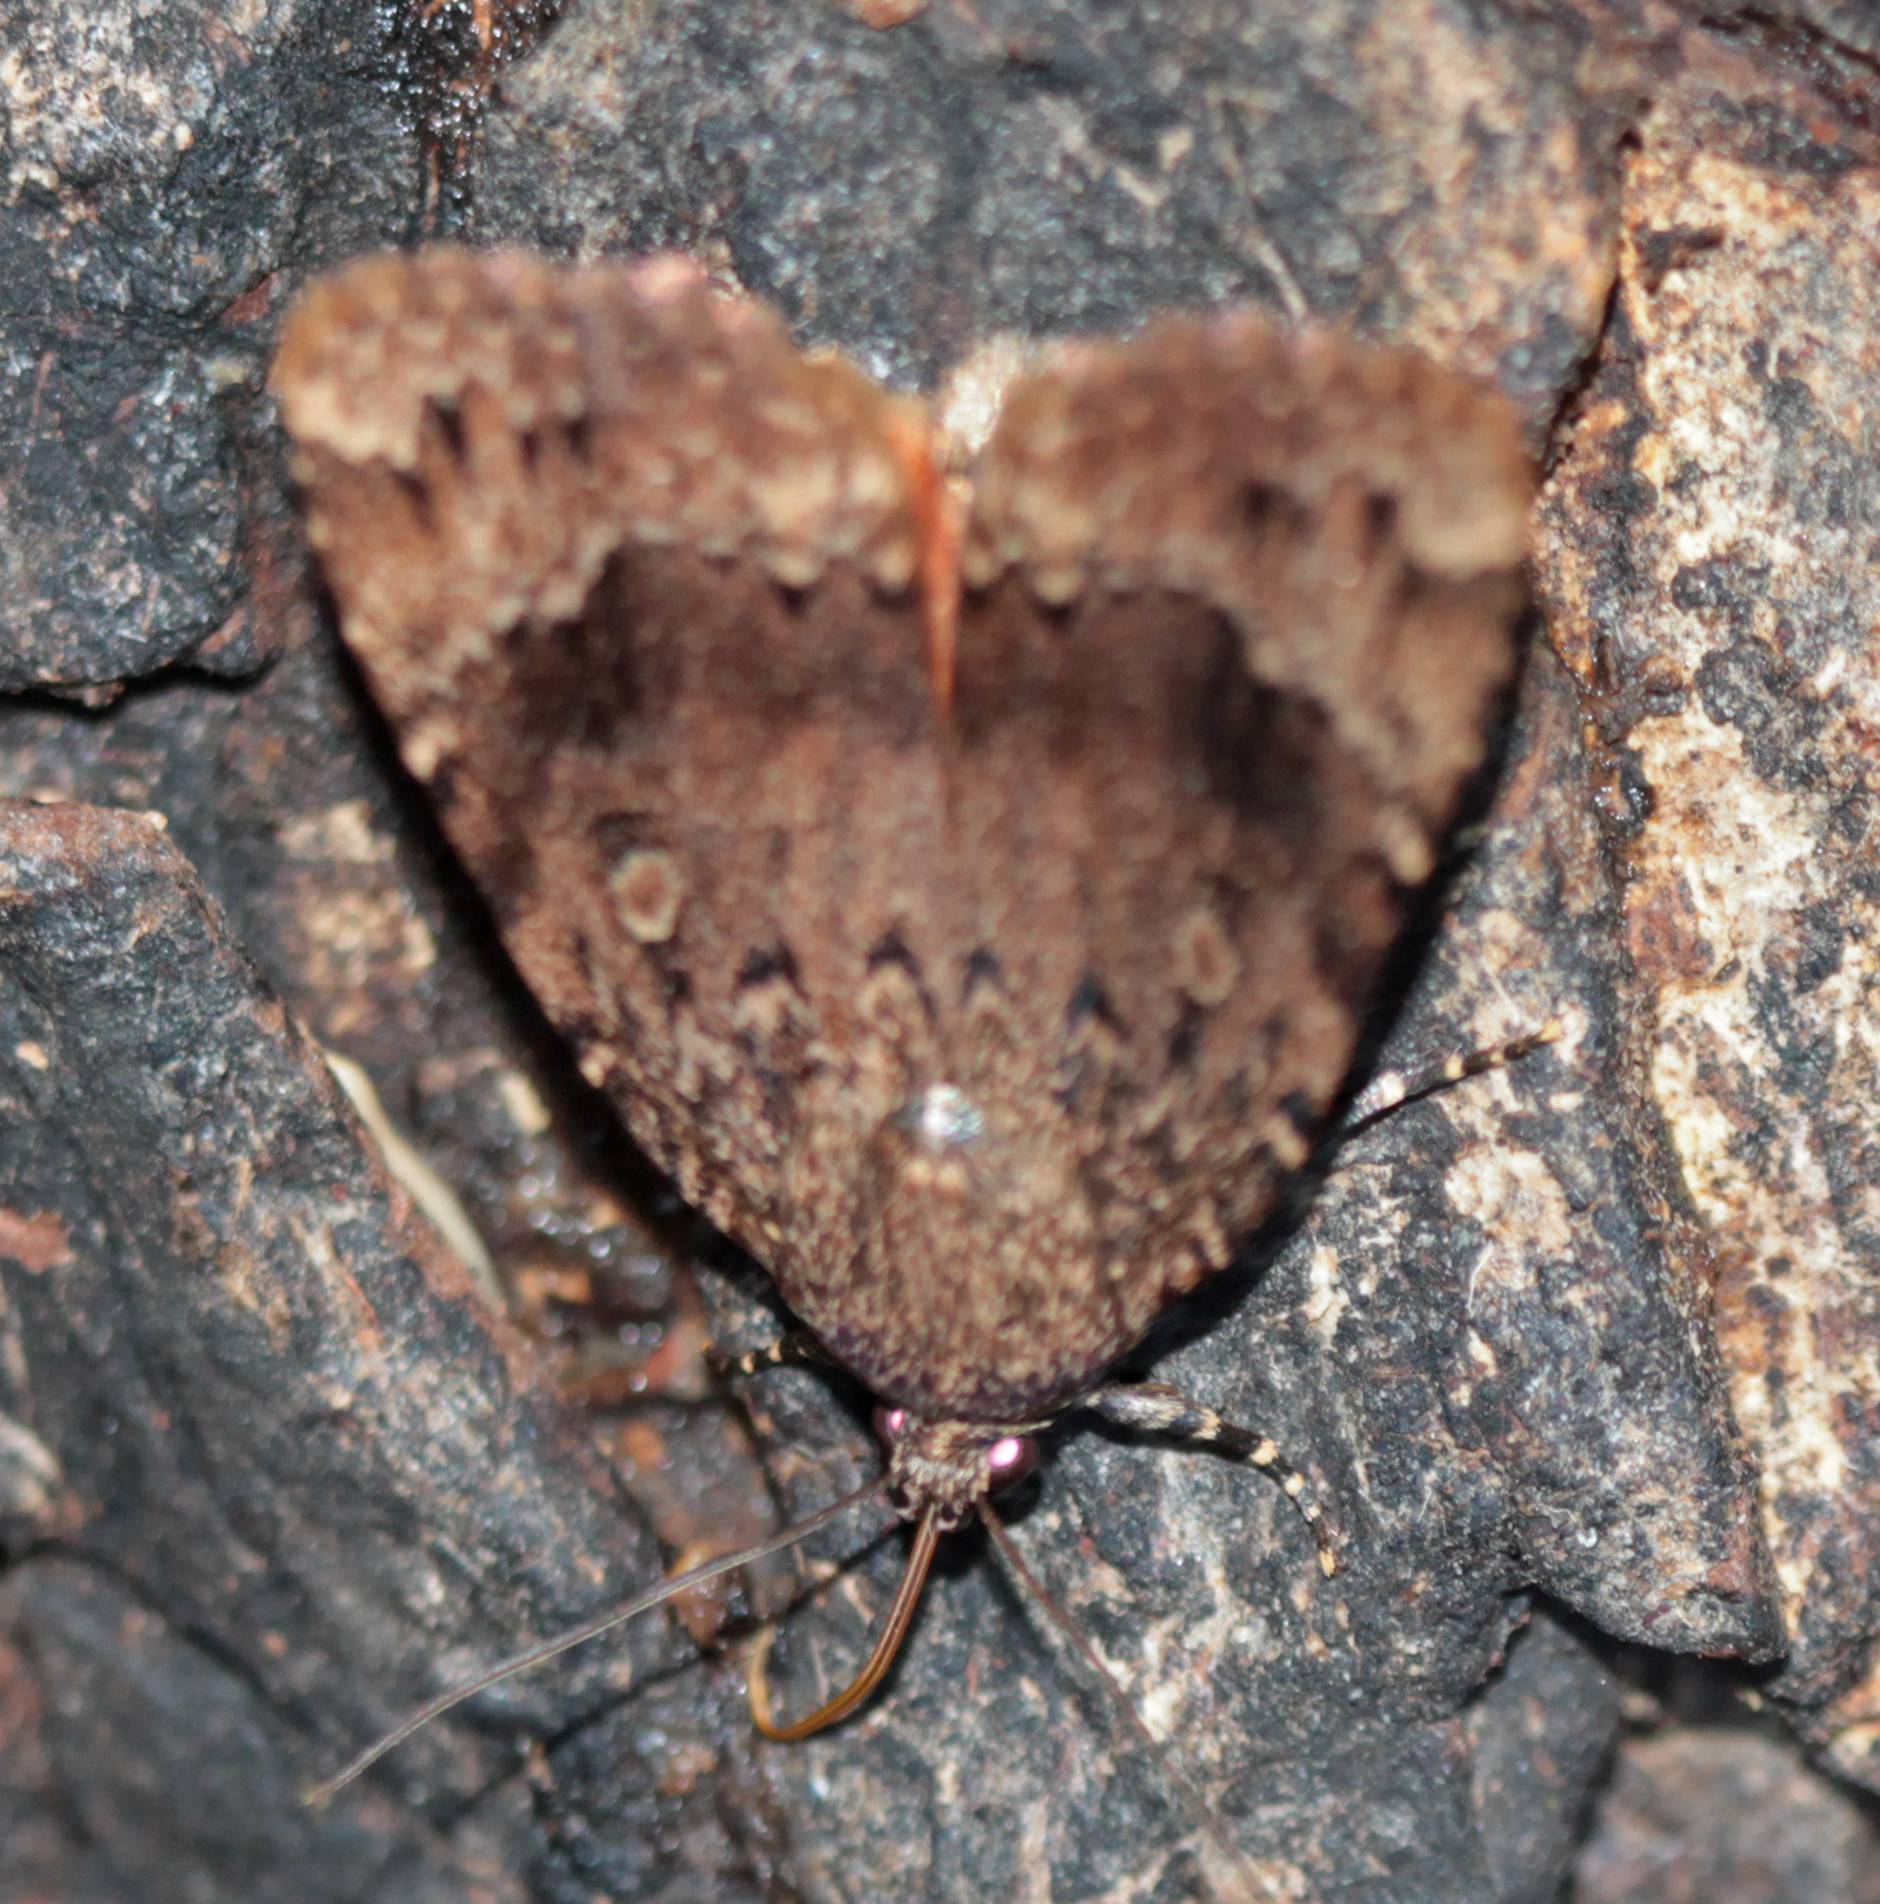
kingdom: Animalia
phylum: Arthropoda
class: Insecta
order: Lepidoptera
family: Noctuidae
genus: Amphipyra
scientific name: Amphipyra pyramidoides
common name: American copper underwing
